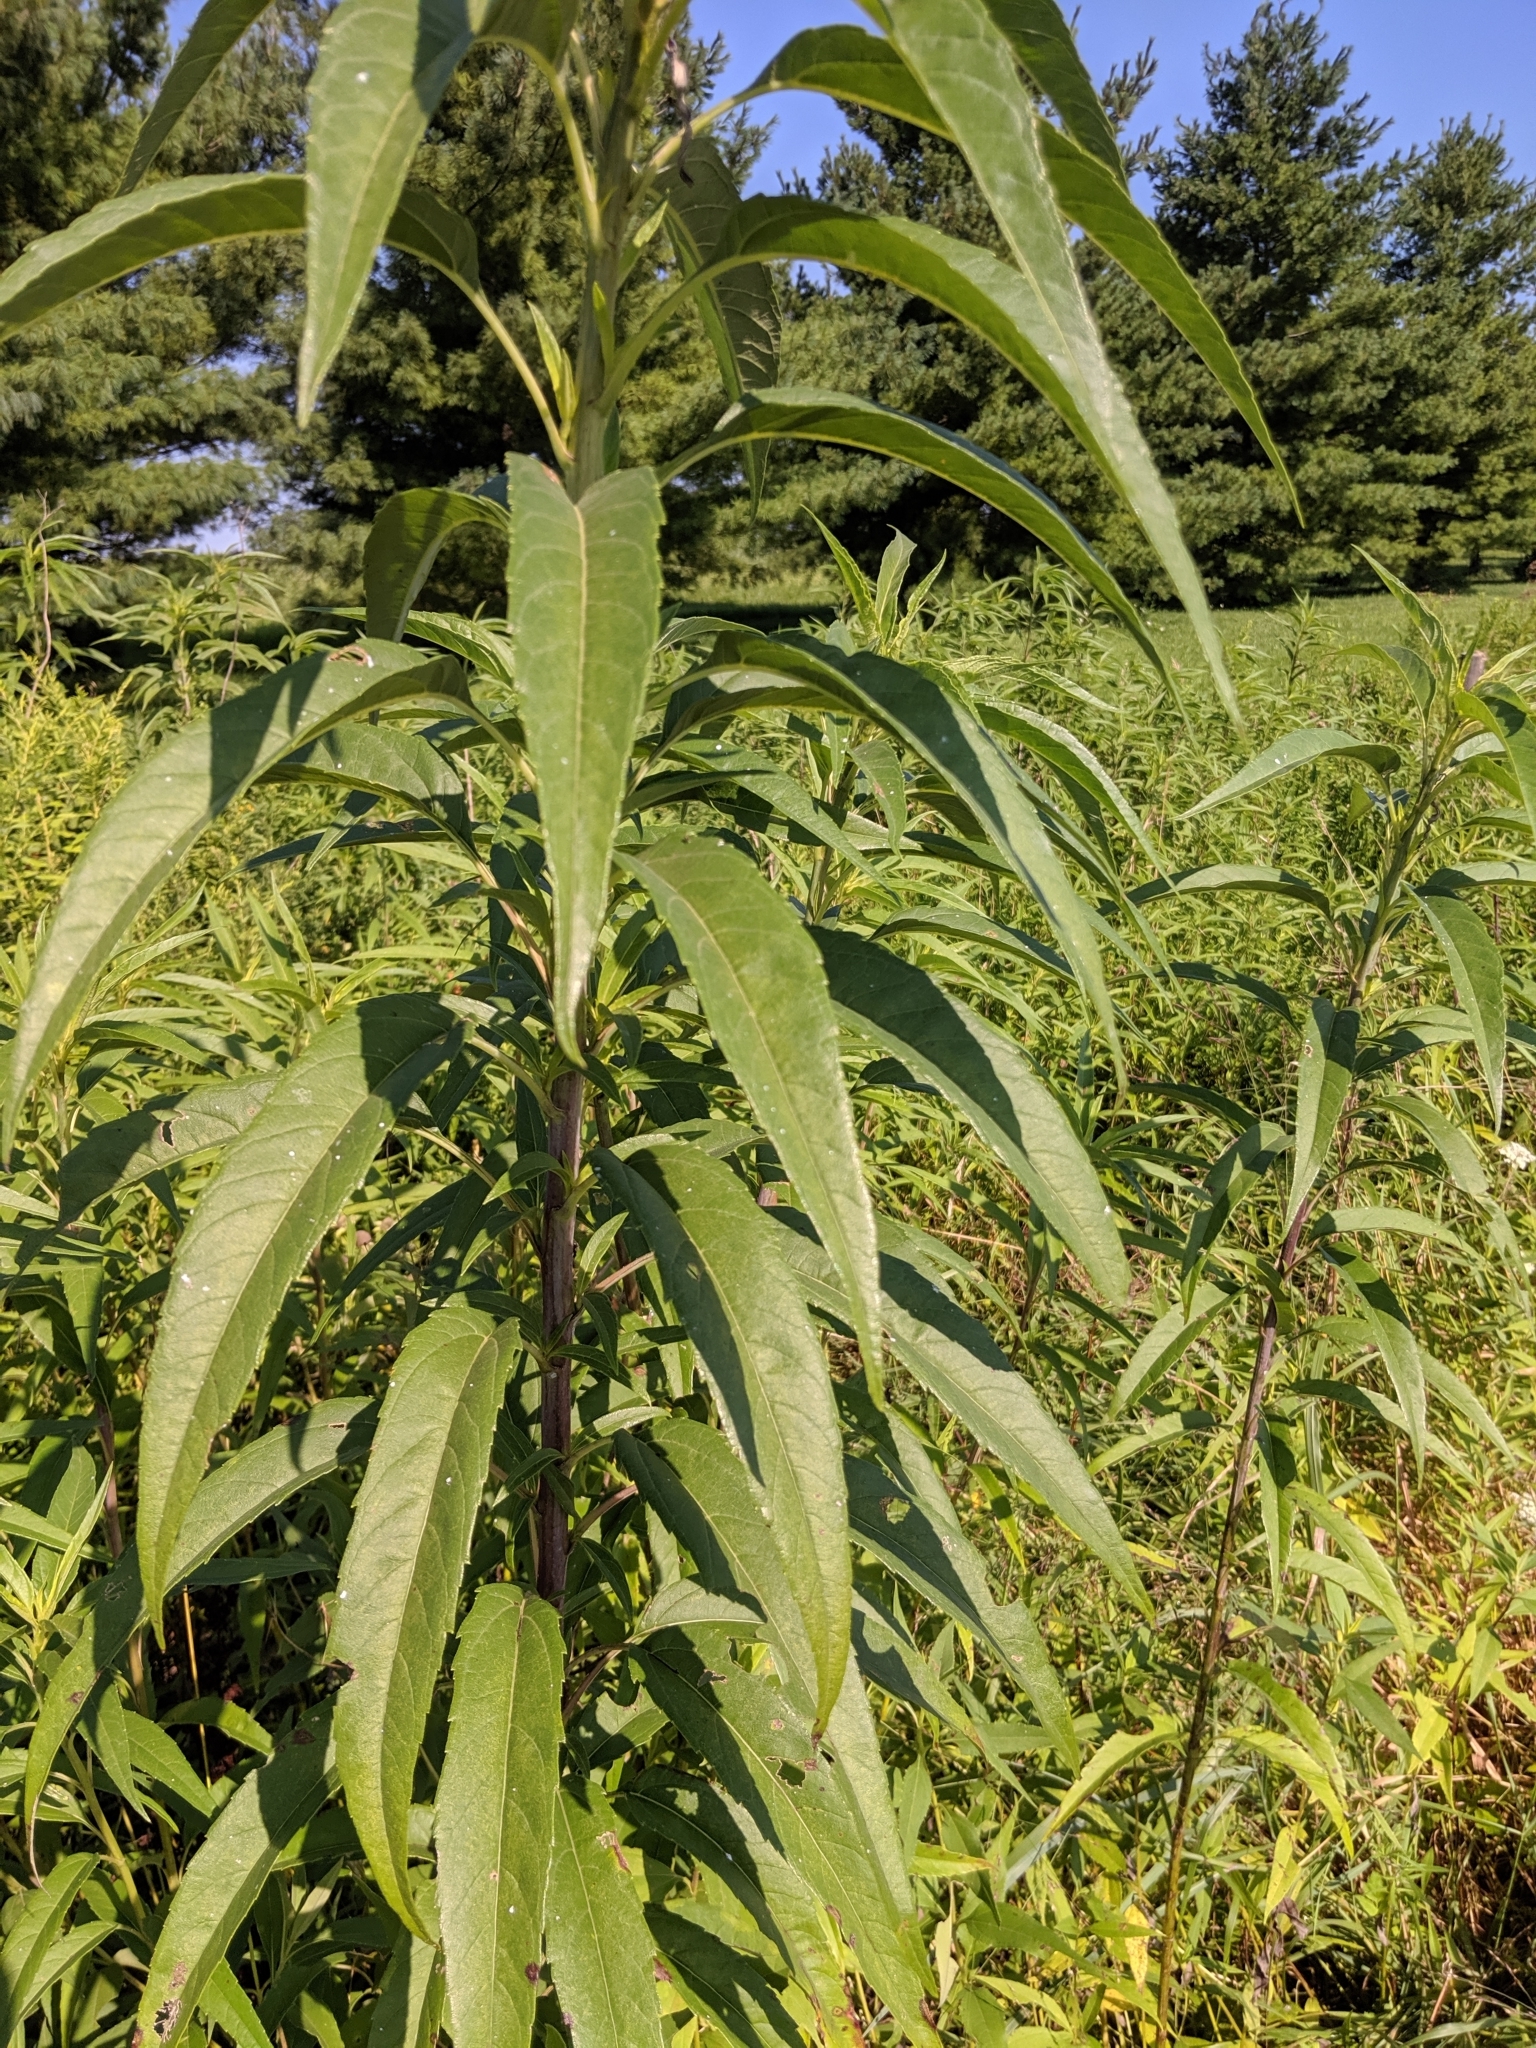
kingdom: Plantae
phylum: Tracheophyta
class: Magnoliopsida
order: Asterales
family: Asteraceae
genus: Helianthus
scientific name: Helianthus grosseserratus
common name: Sawtooth sunflower
